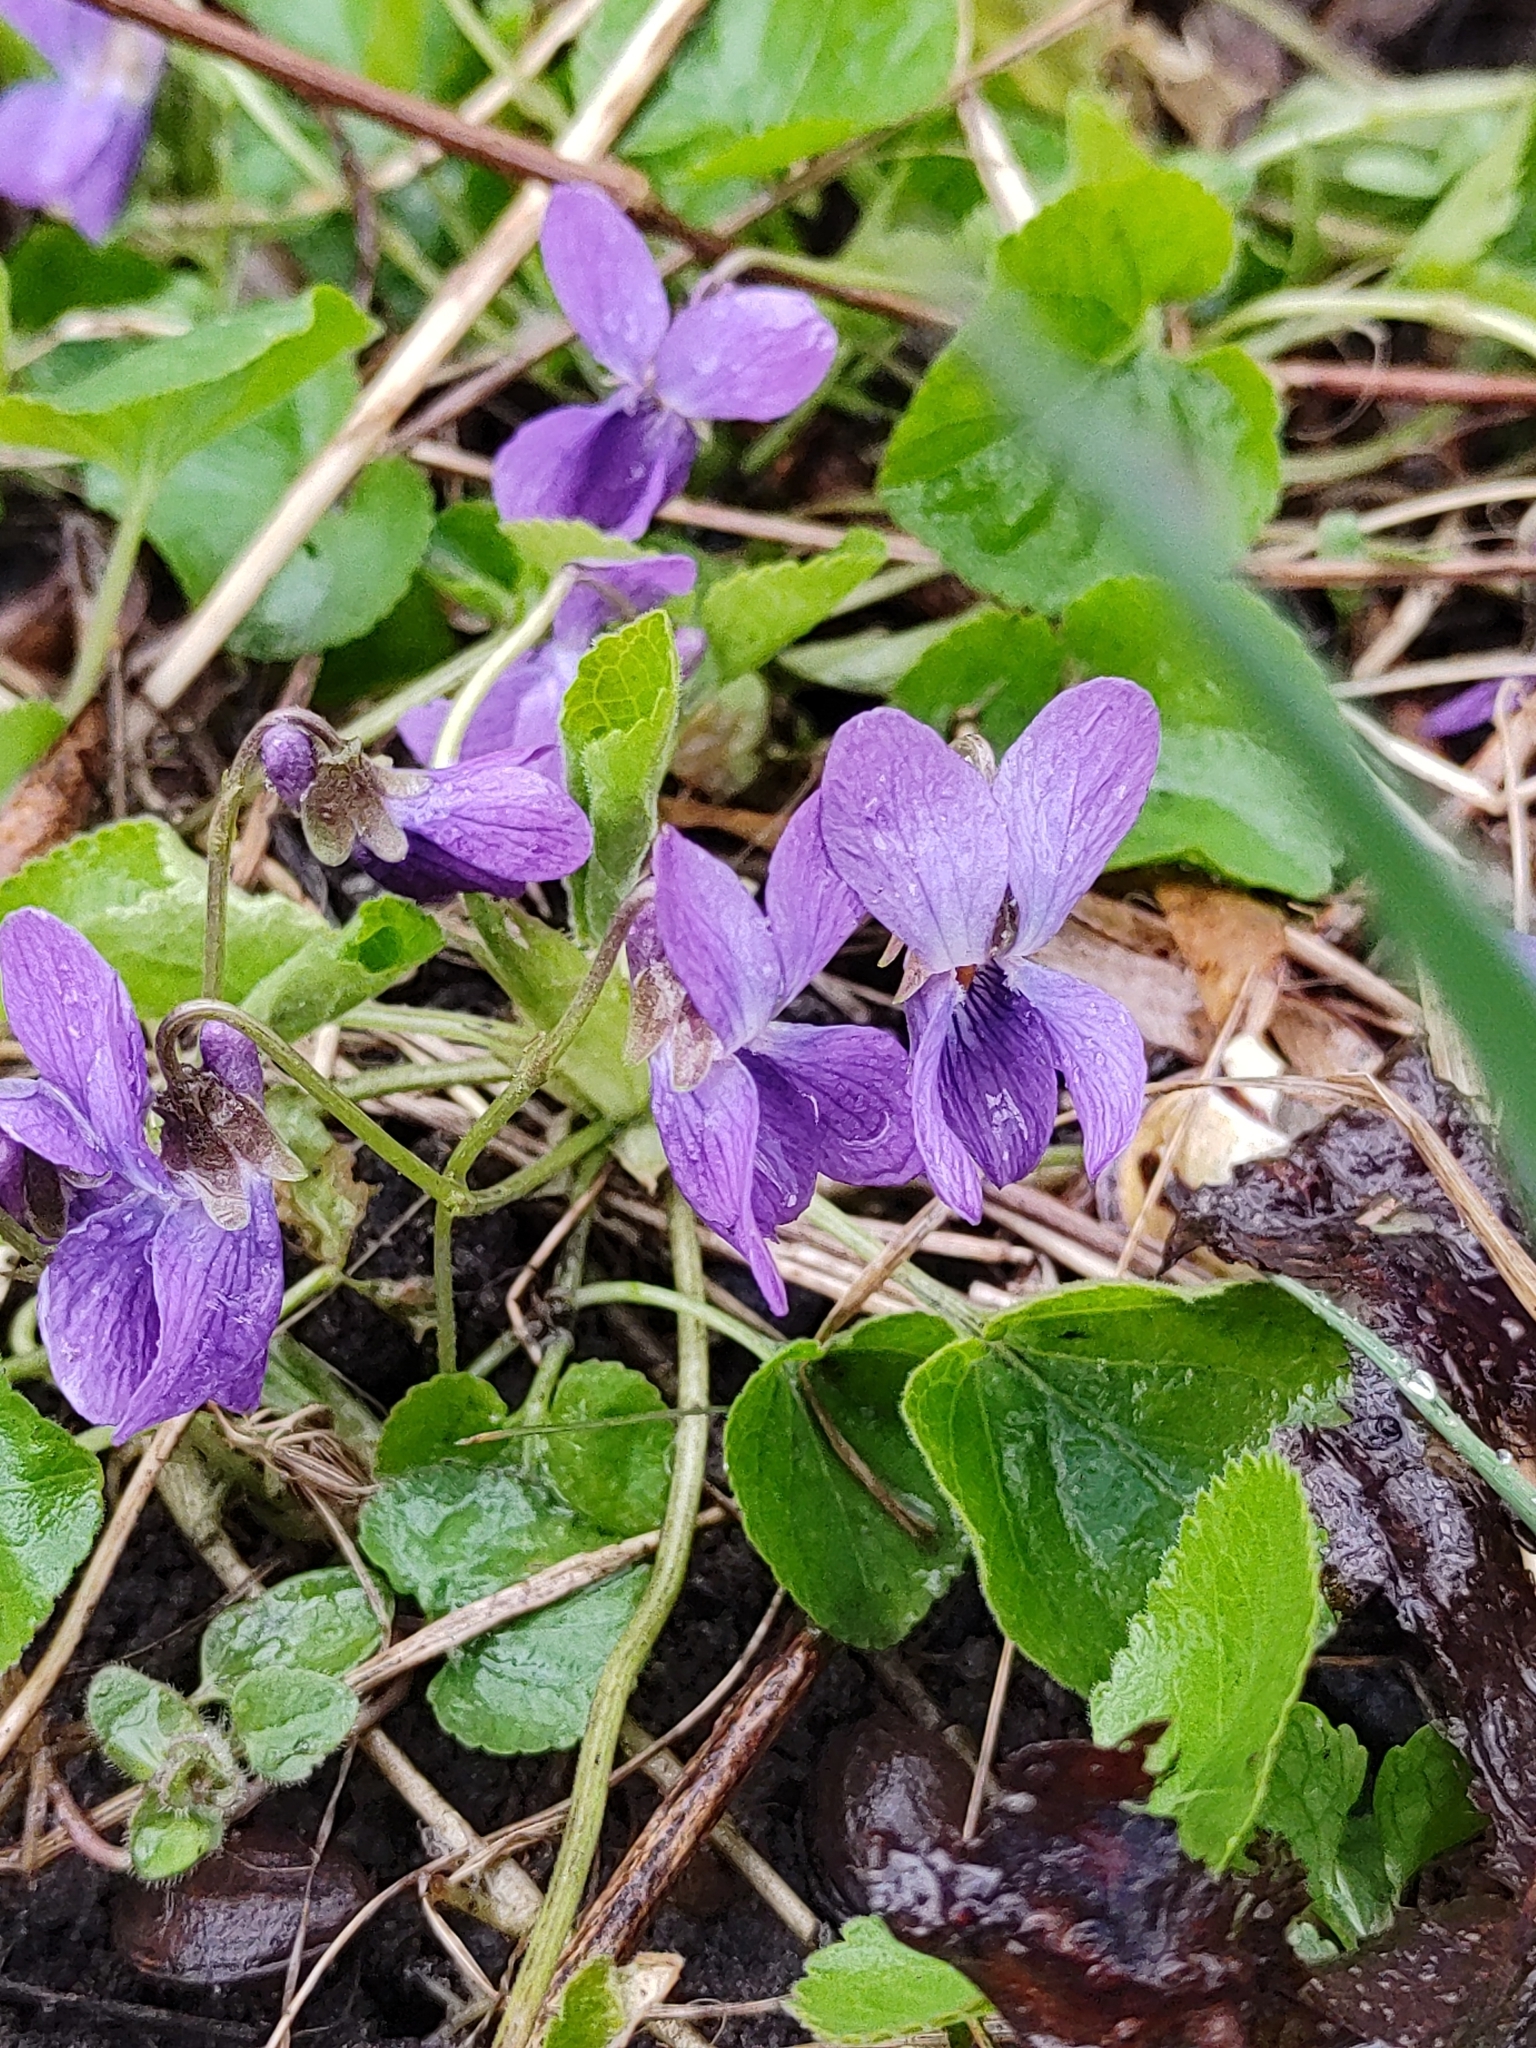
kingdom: Plantae
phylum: Tracheophyta
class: Magnoliopsida
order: Malpighiales
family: Violaceae
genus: Viola
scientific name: Viola odorata
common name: Sweet violet
